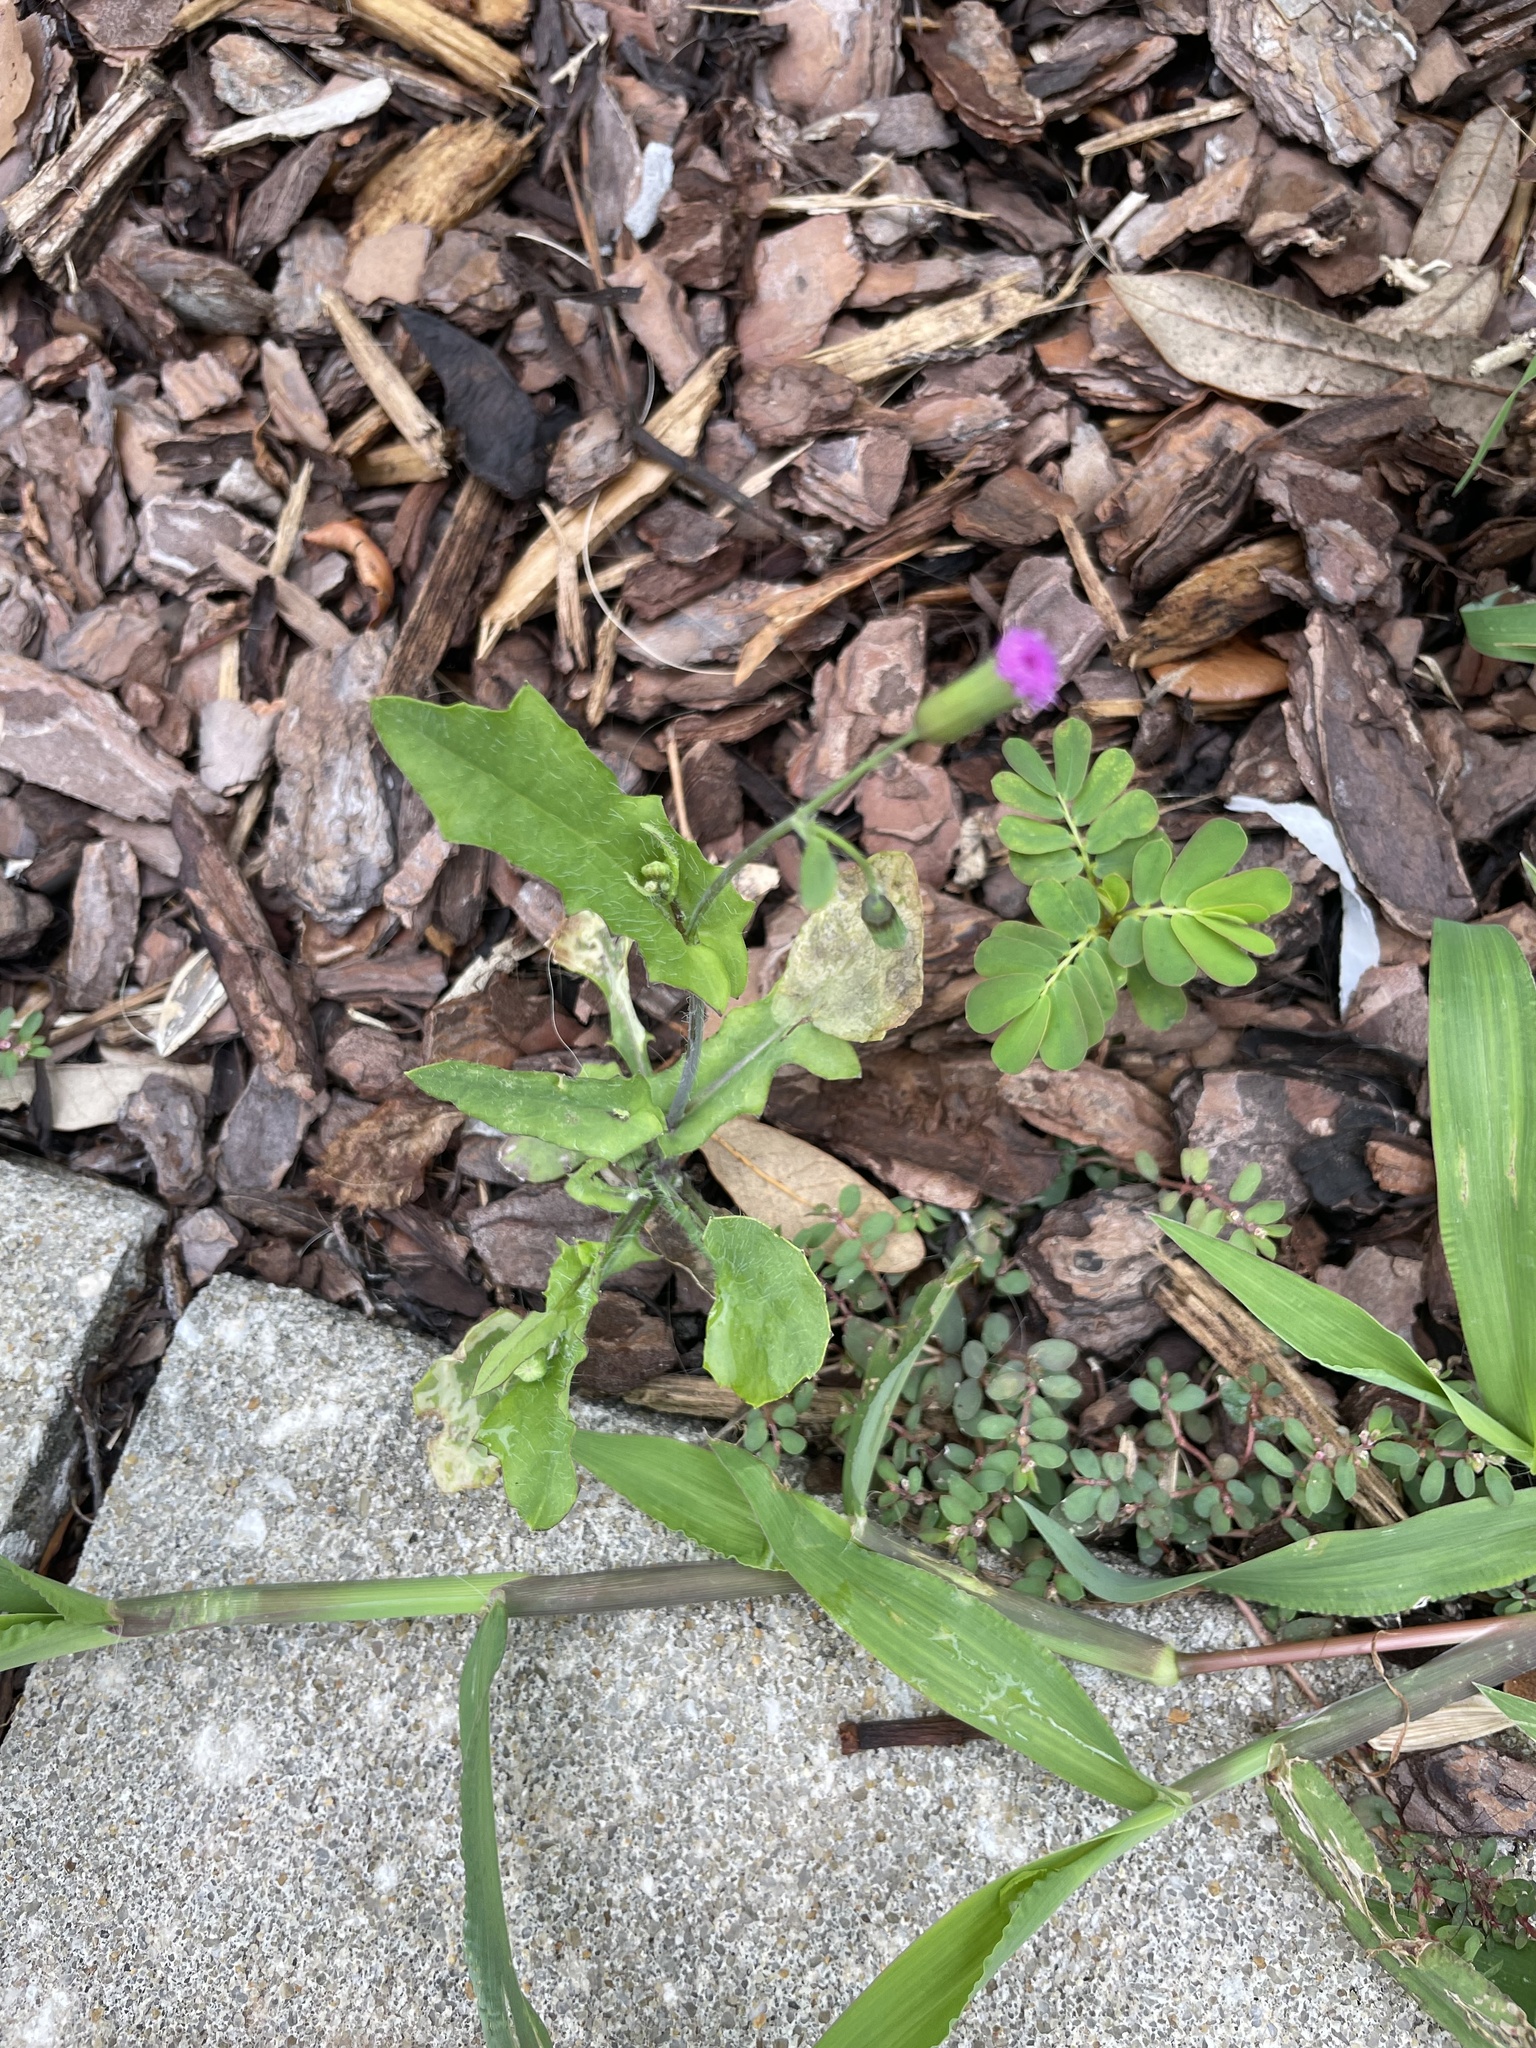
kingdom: Plantae
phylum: Tracheophyta
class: Magnoliopsida
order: Asterales
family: Asteraceae
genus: Emilia
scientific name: Emilia sonchifolia
